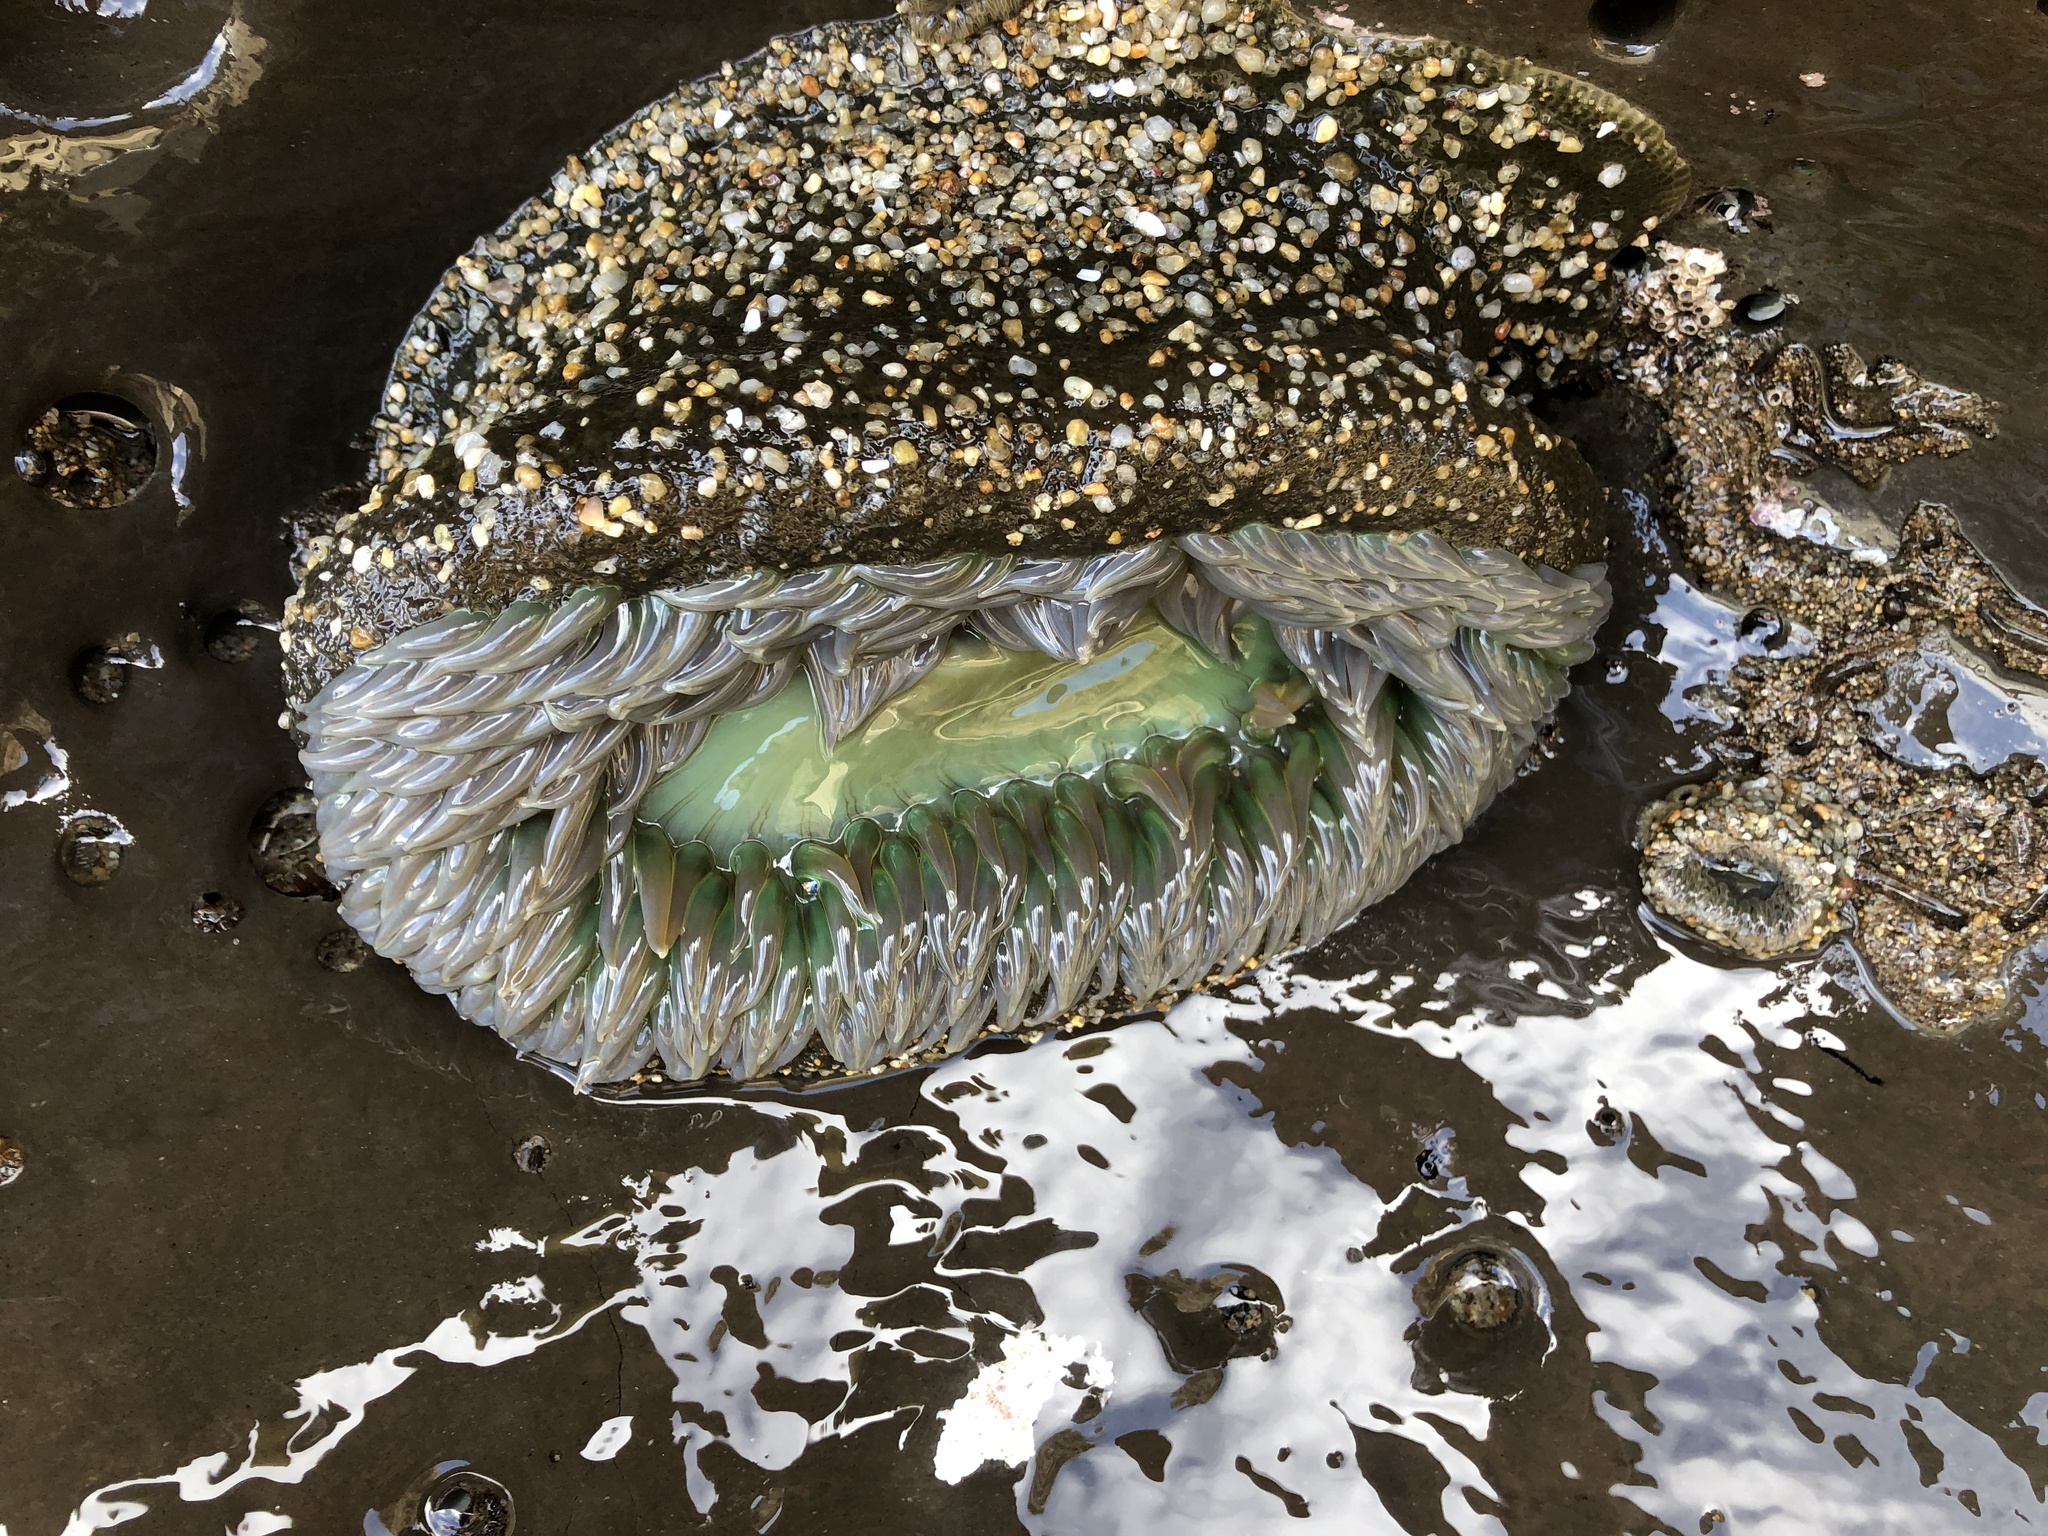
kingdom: Animalia
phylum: Cnidaria
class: Anthozoa
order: Actiniaria
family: Actiniidae
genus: Anthopleura
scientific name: Anthopleura xanthogrammica
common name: Giant green anemone
